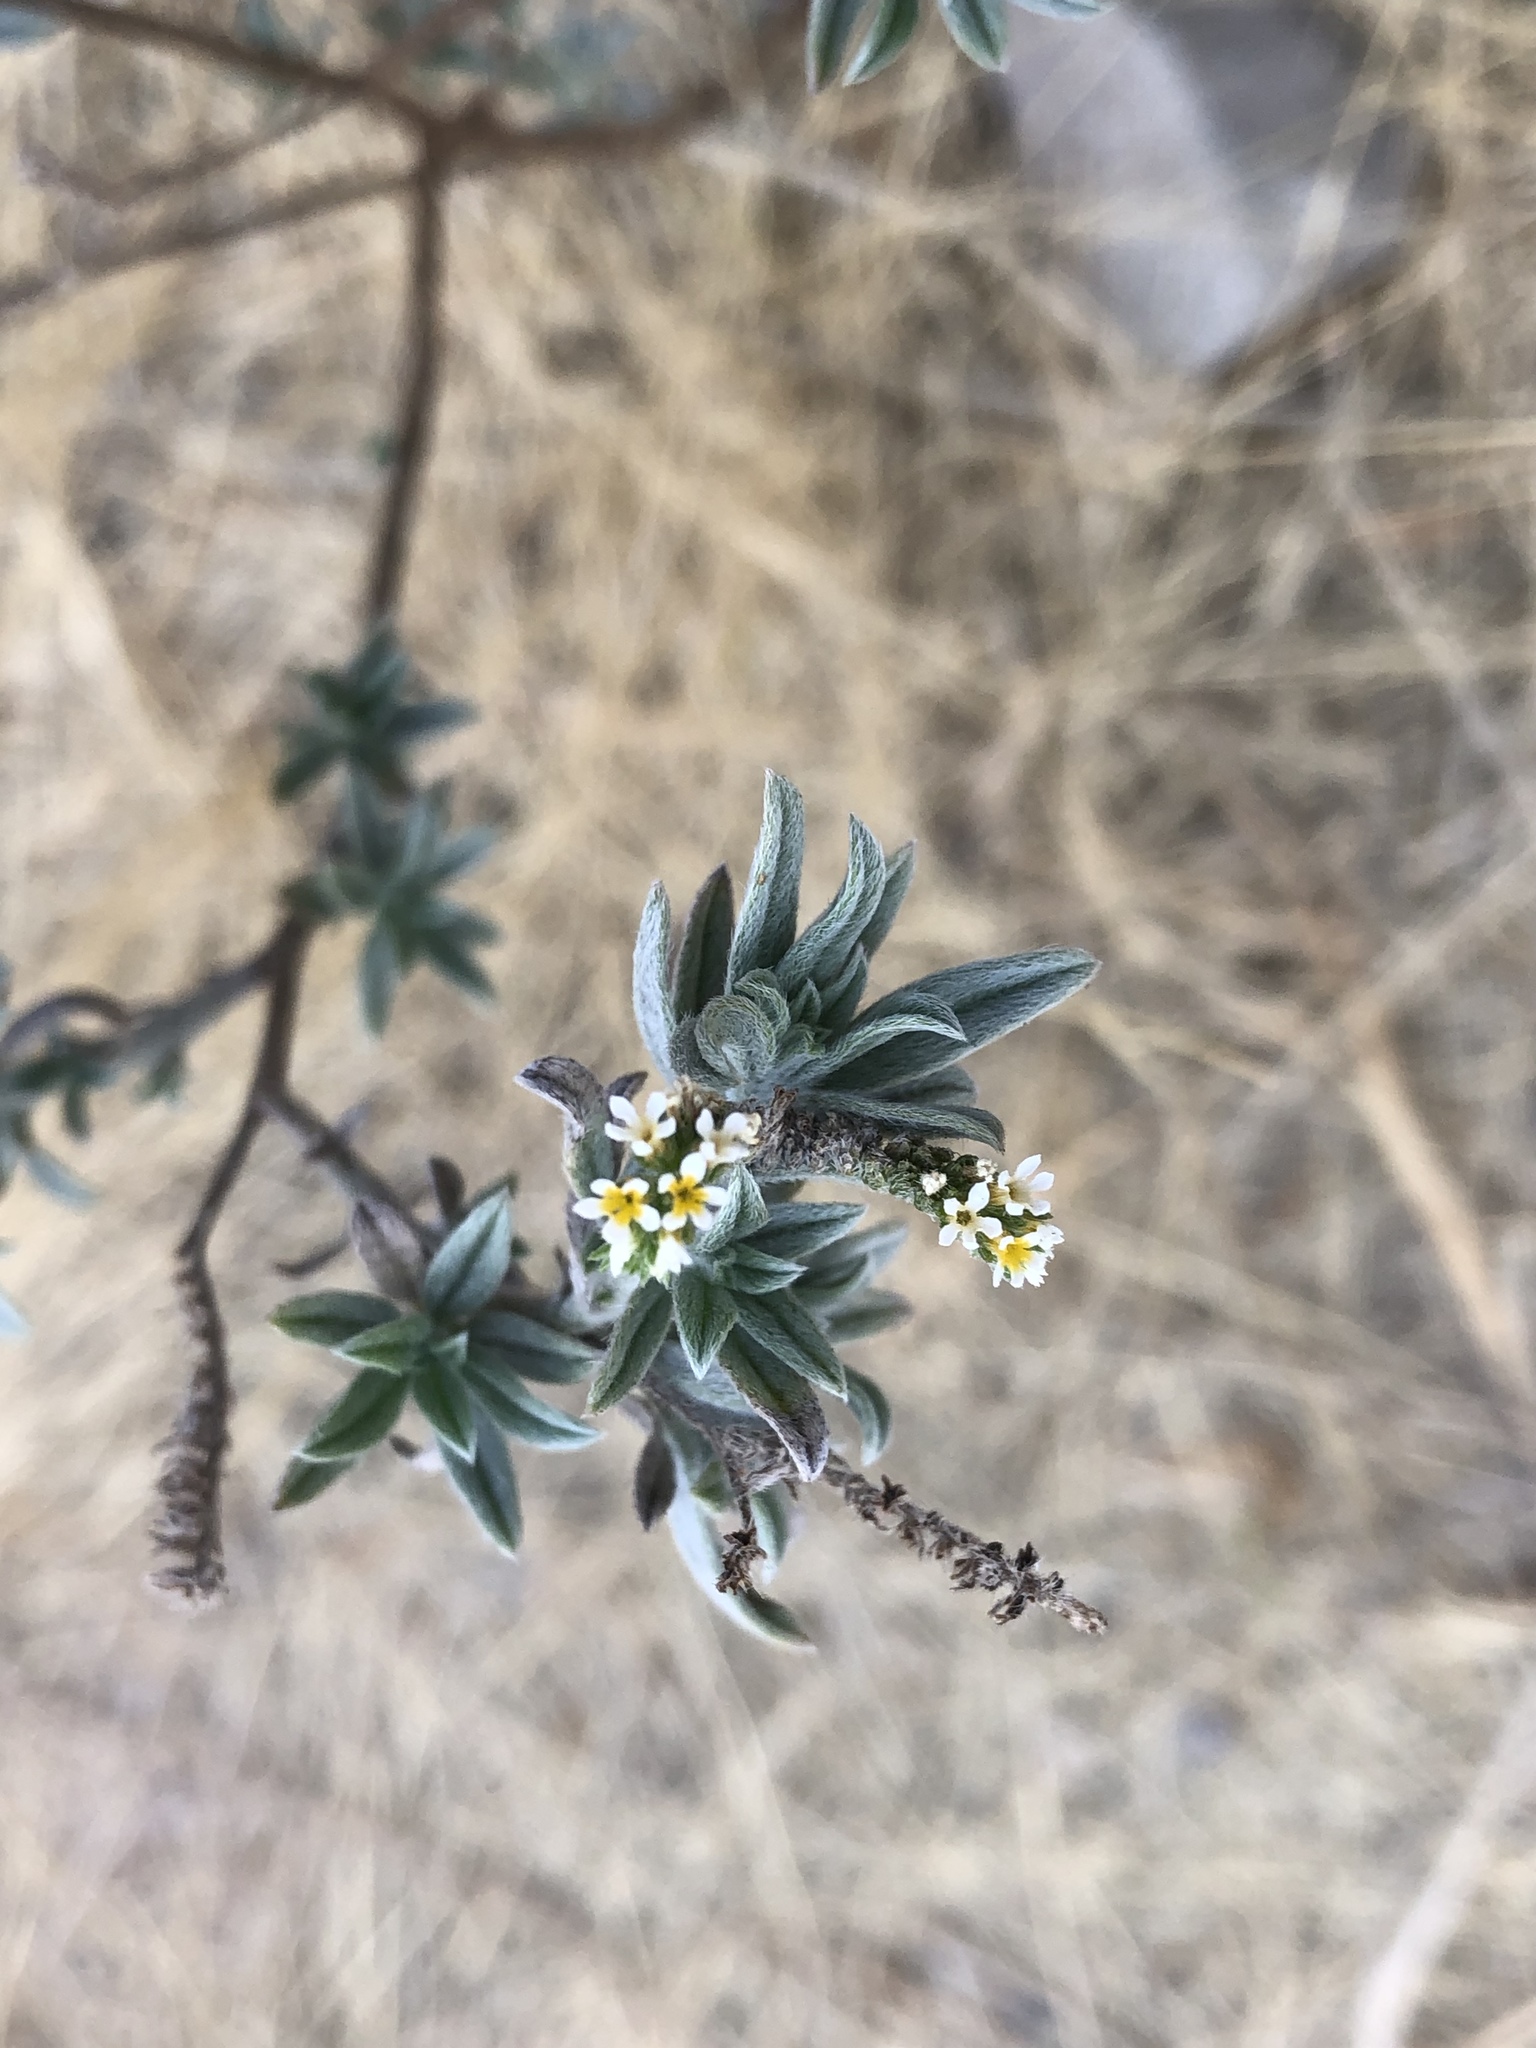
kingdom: Plantae
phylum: Tracheophyta
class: Magnoliopsida
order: Boraginales
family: Heliotropiaceae
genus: Euploca
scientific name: Euploca procumbens
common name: Fourspike heliotrope
